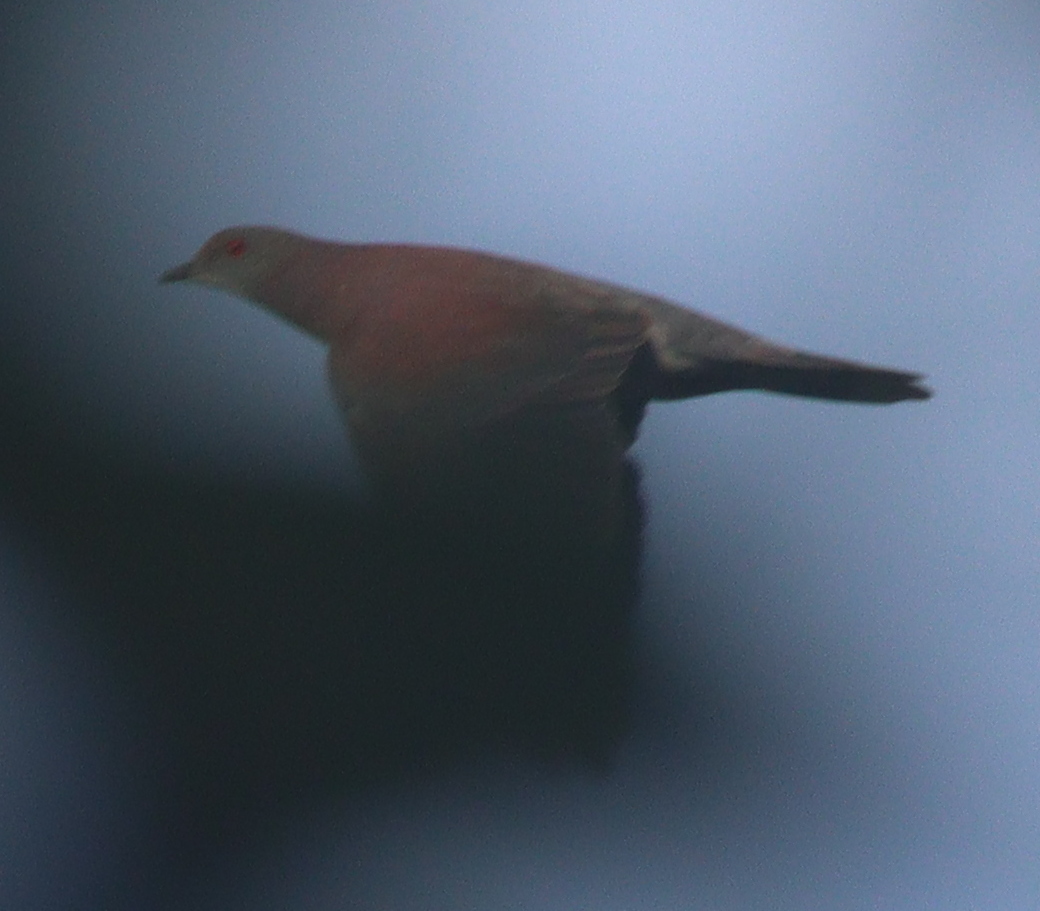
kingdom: Animalia
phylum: Chordata
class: Aves
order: Columbiformes
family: Columbidae
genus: Patagioenas
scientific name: Patagioenas cayennensis
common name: Pale-vented pigeon
